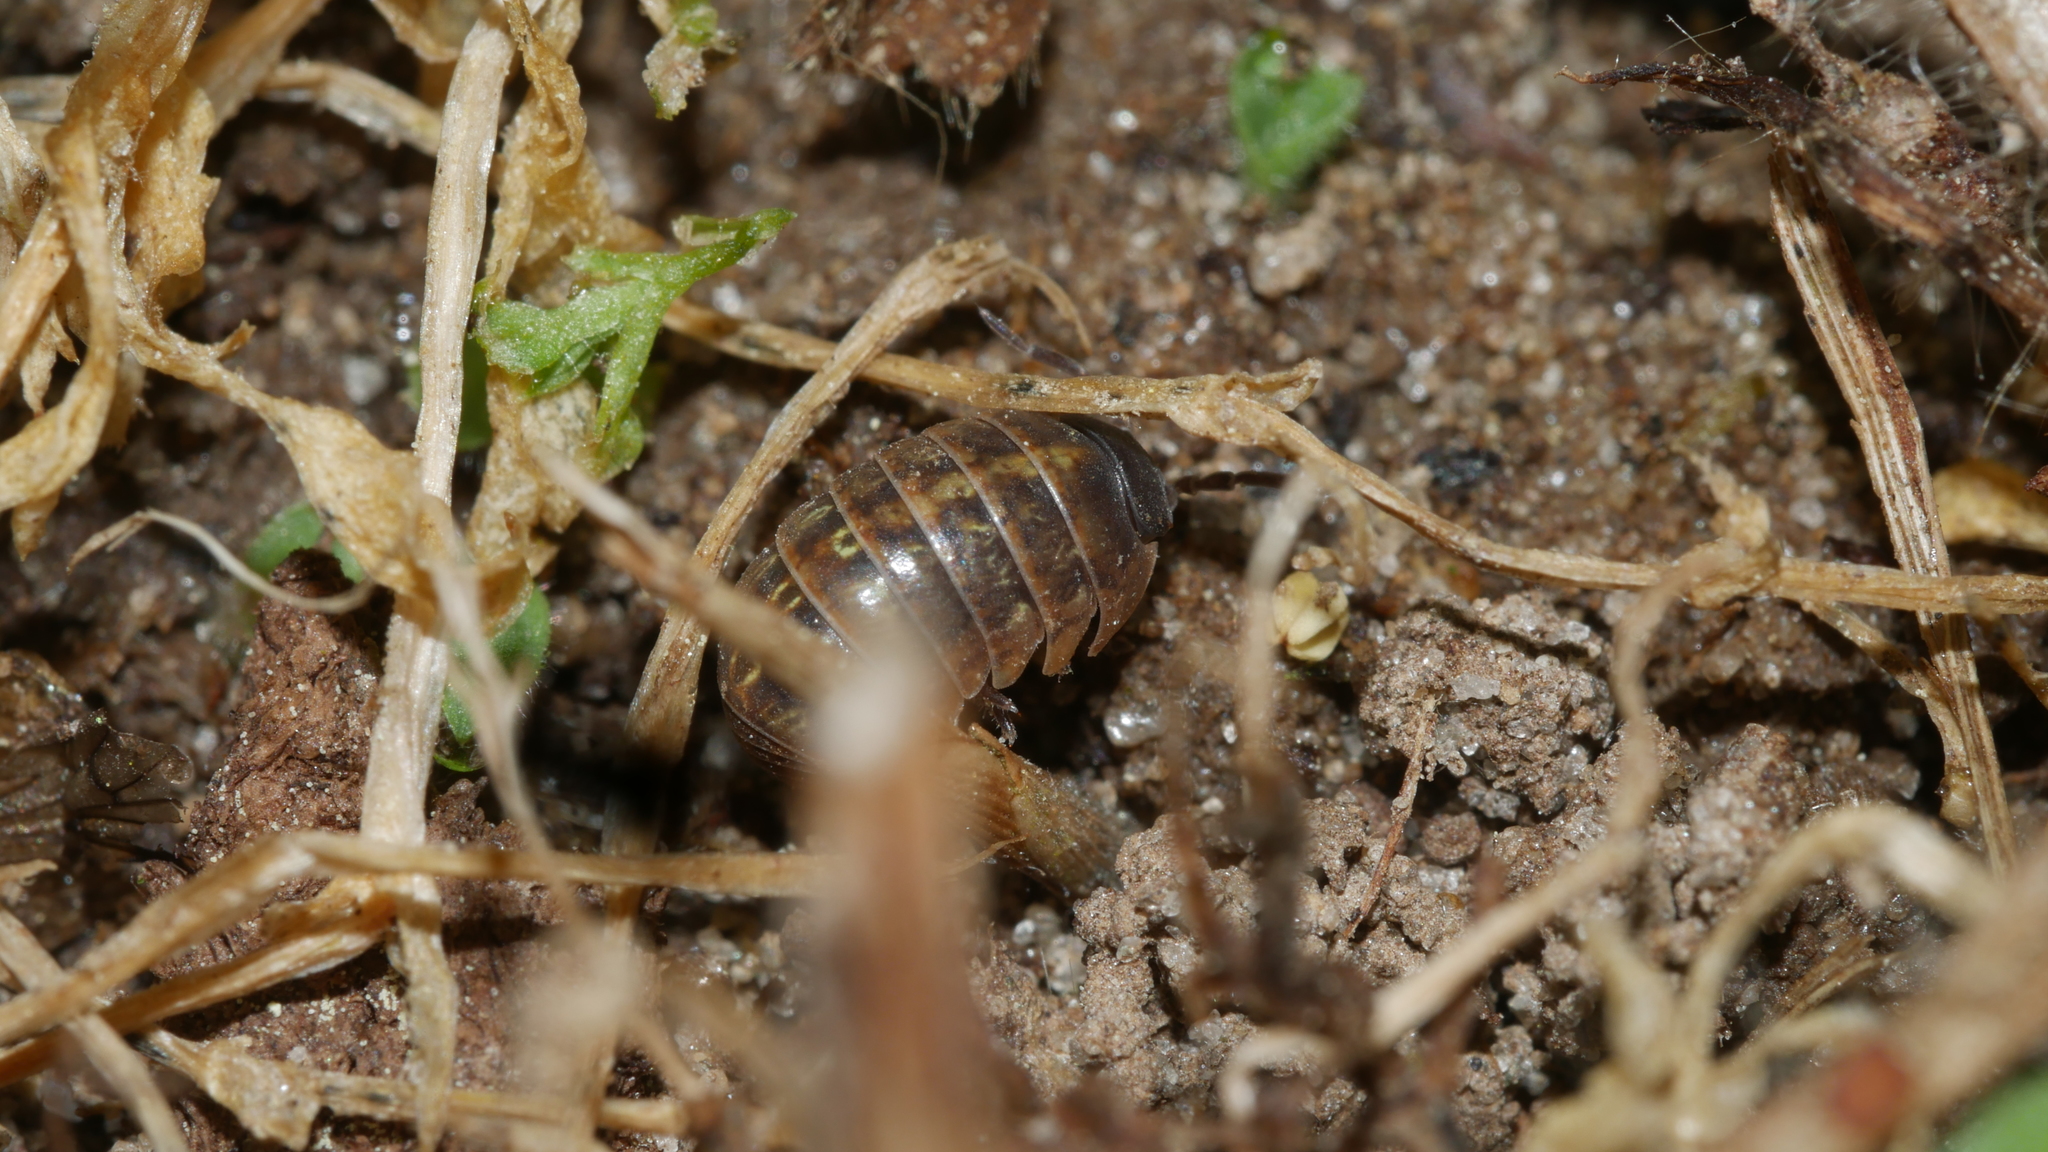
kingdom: Animalia
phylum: Arthropoda
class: Malacostraca
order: Isopoda
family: Armadillidiidae
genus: Armadillidium
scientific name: Armadillidium vulgare
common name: Common pill woodlouse
